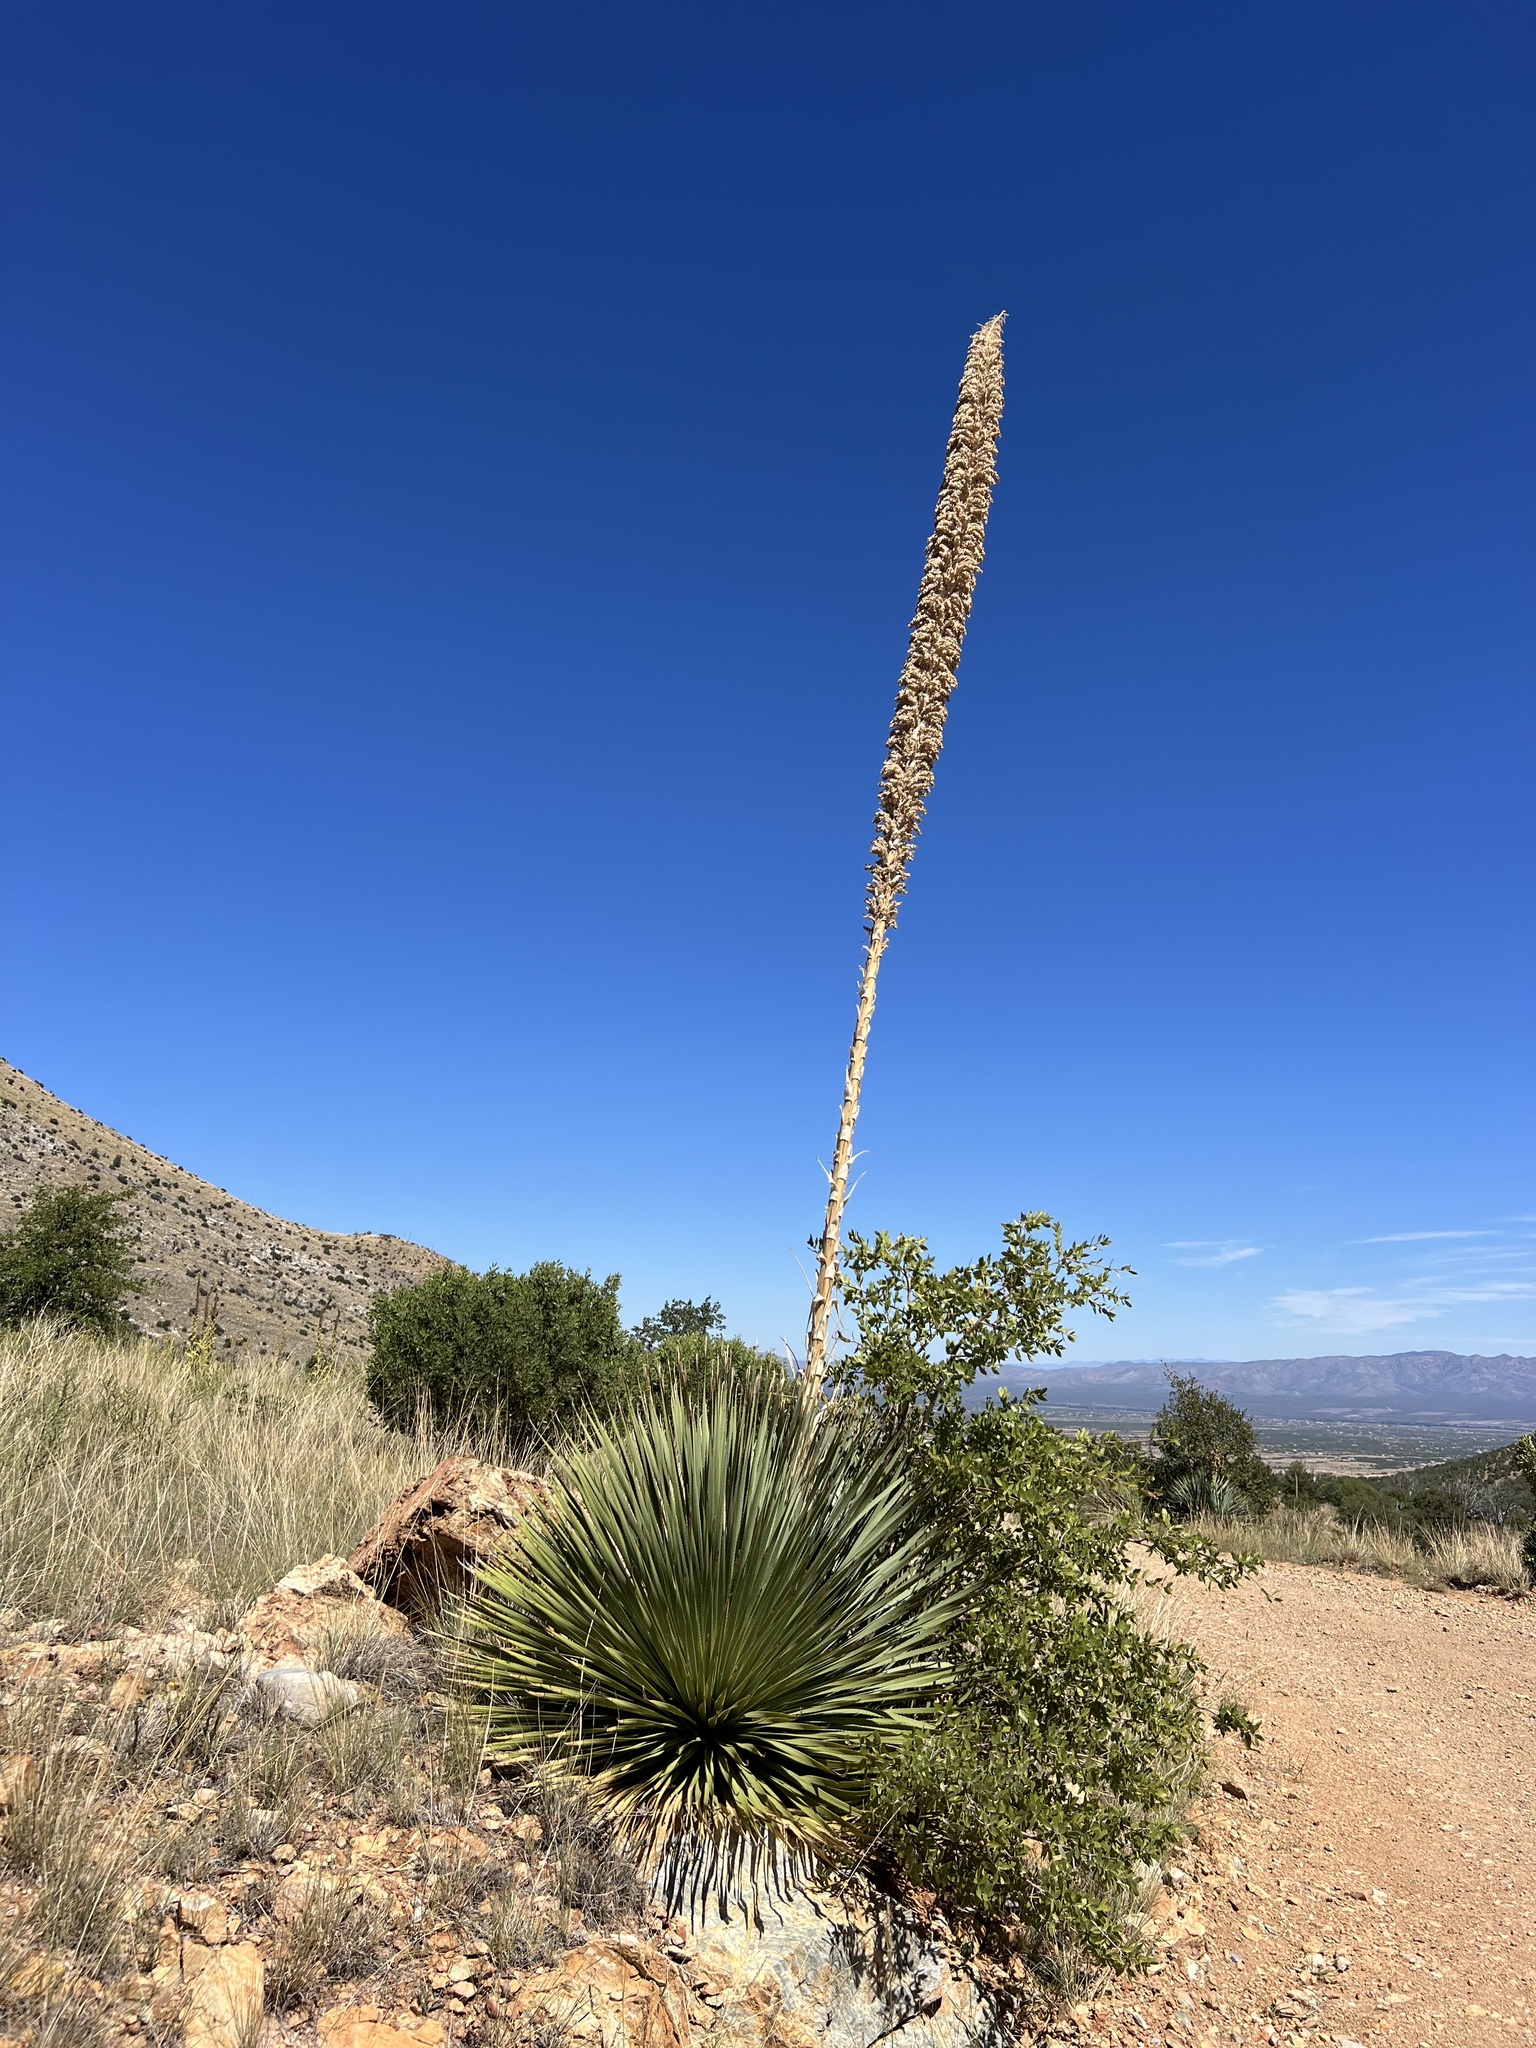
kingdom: Plantae
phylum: Tracheophyta
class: Liliopsida
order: Asparagales
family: Asparagaceae
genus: Dasylirion
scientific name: Dasylirion wheeleri
